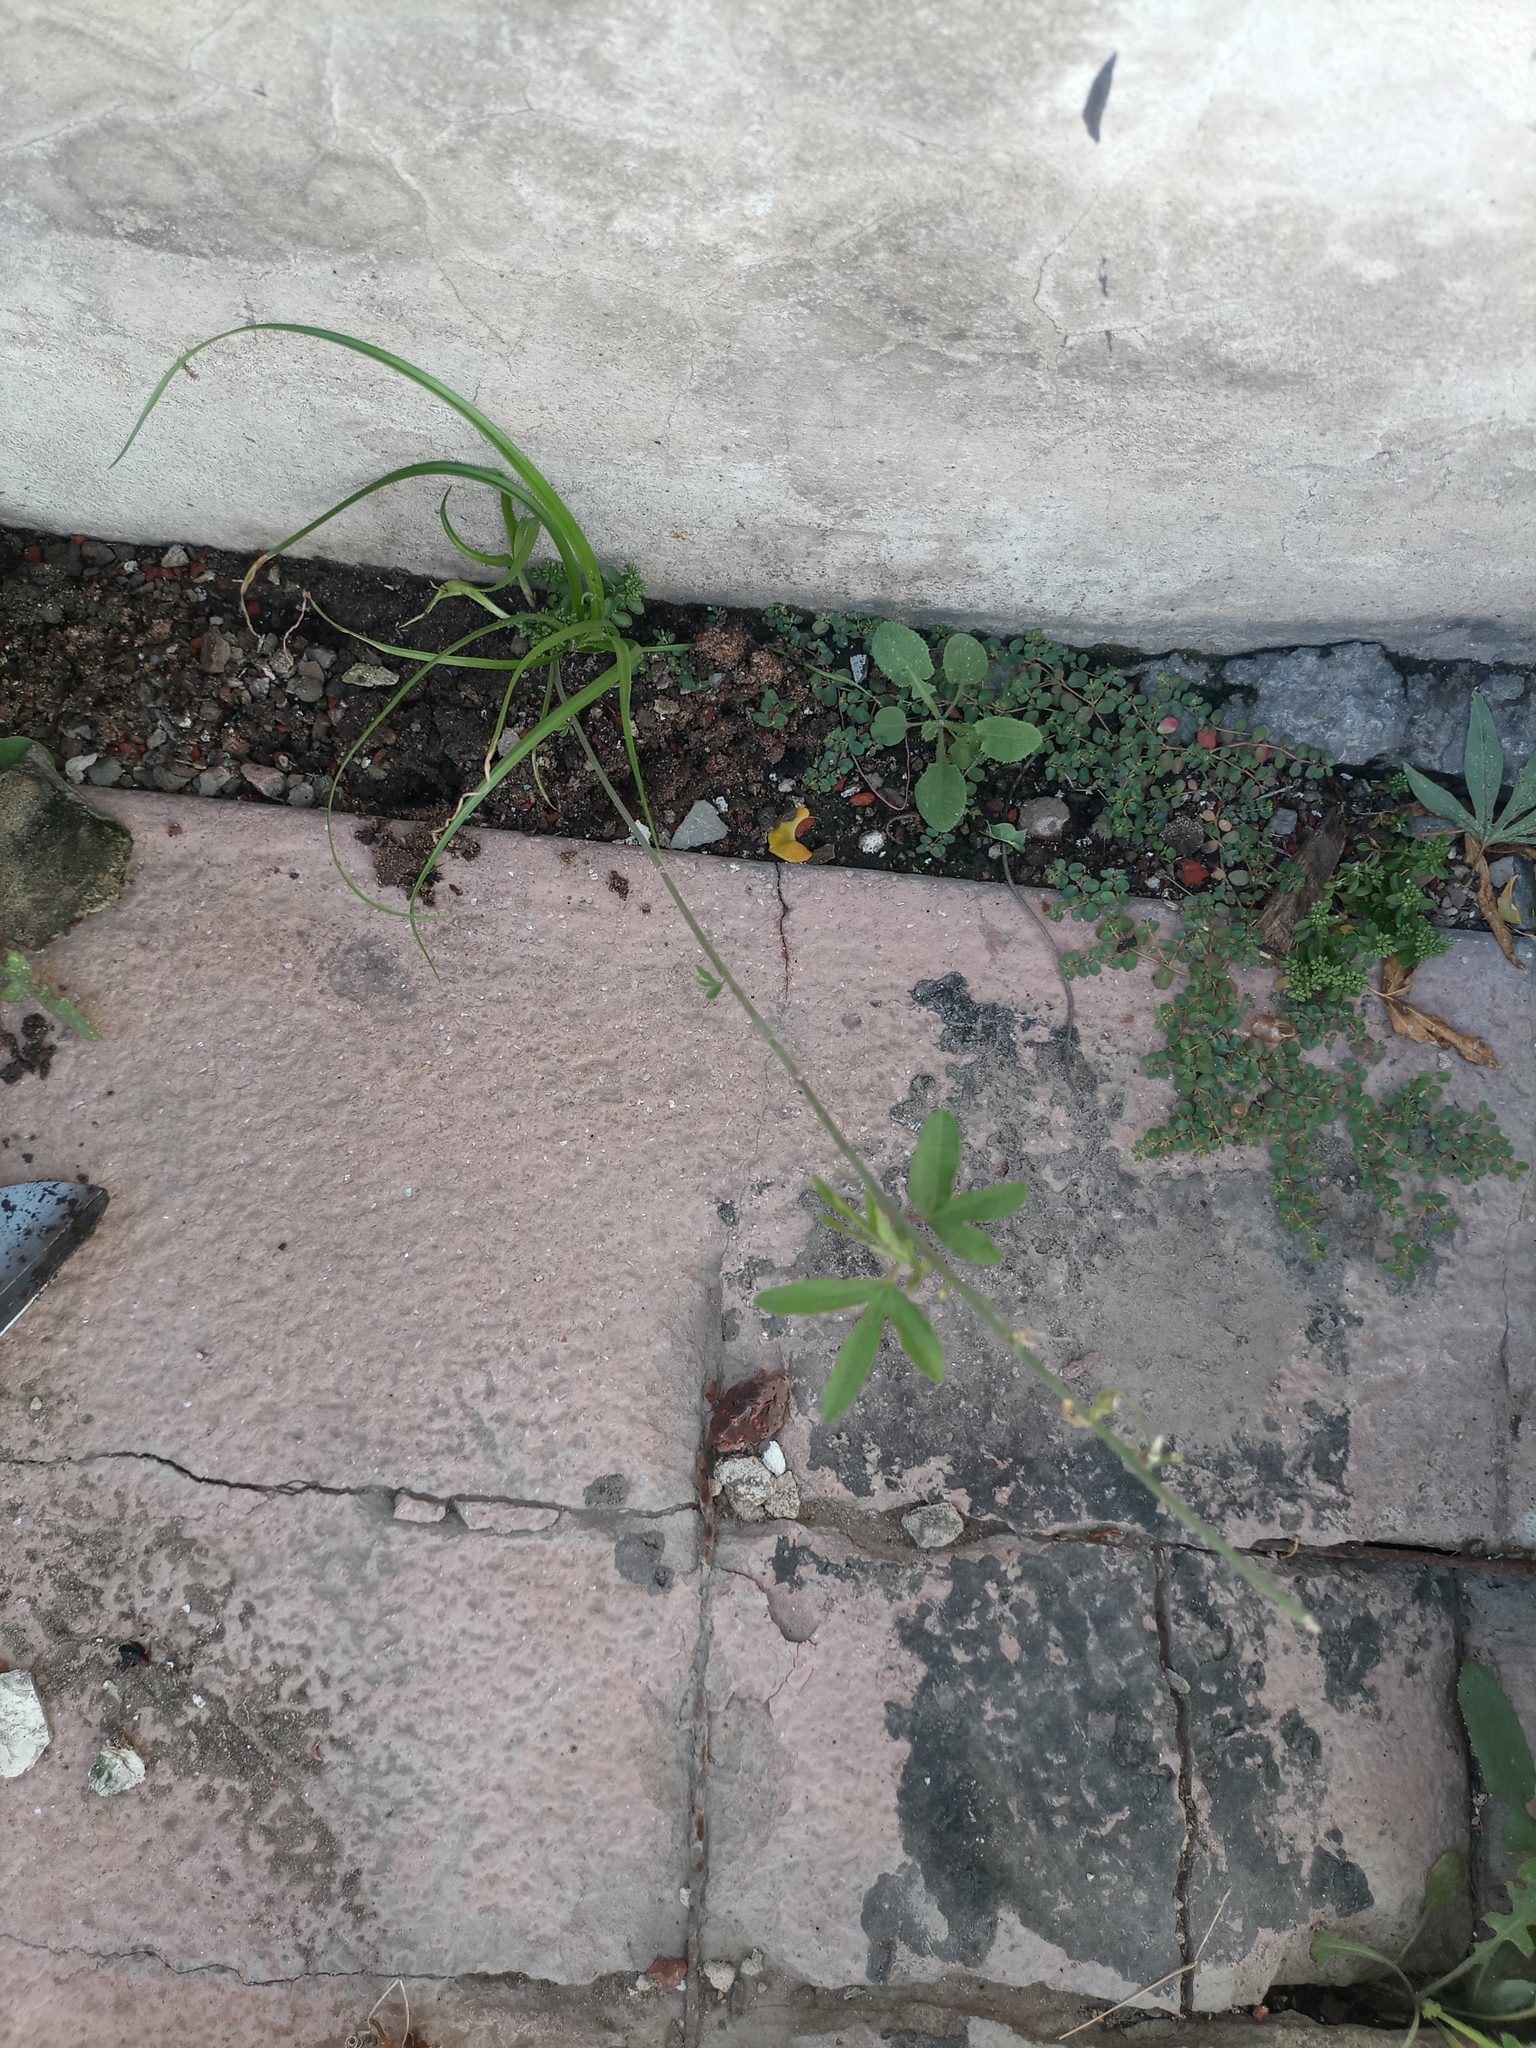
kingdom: Plantae
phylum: Tracheophyta
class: Magnoliopsida
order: Malpighiales
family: Passifloraceae
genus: Passiflora
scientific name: Passiflora caerulea
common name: Blue passionflower
